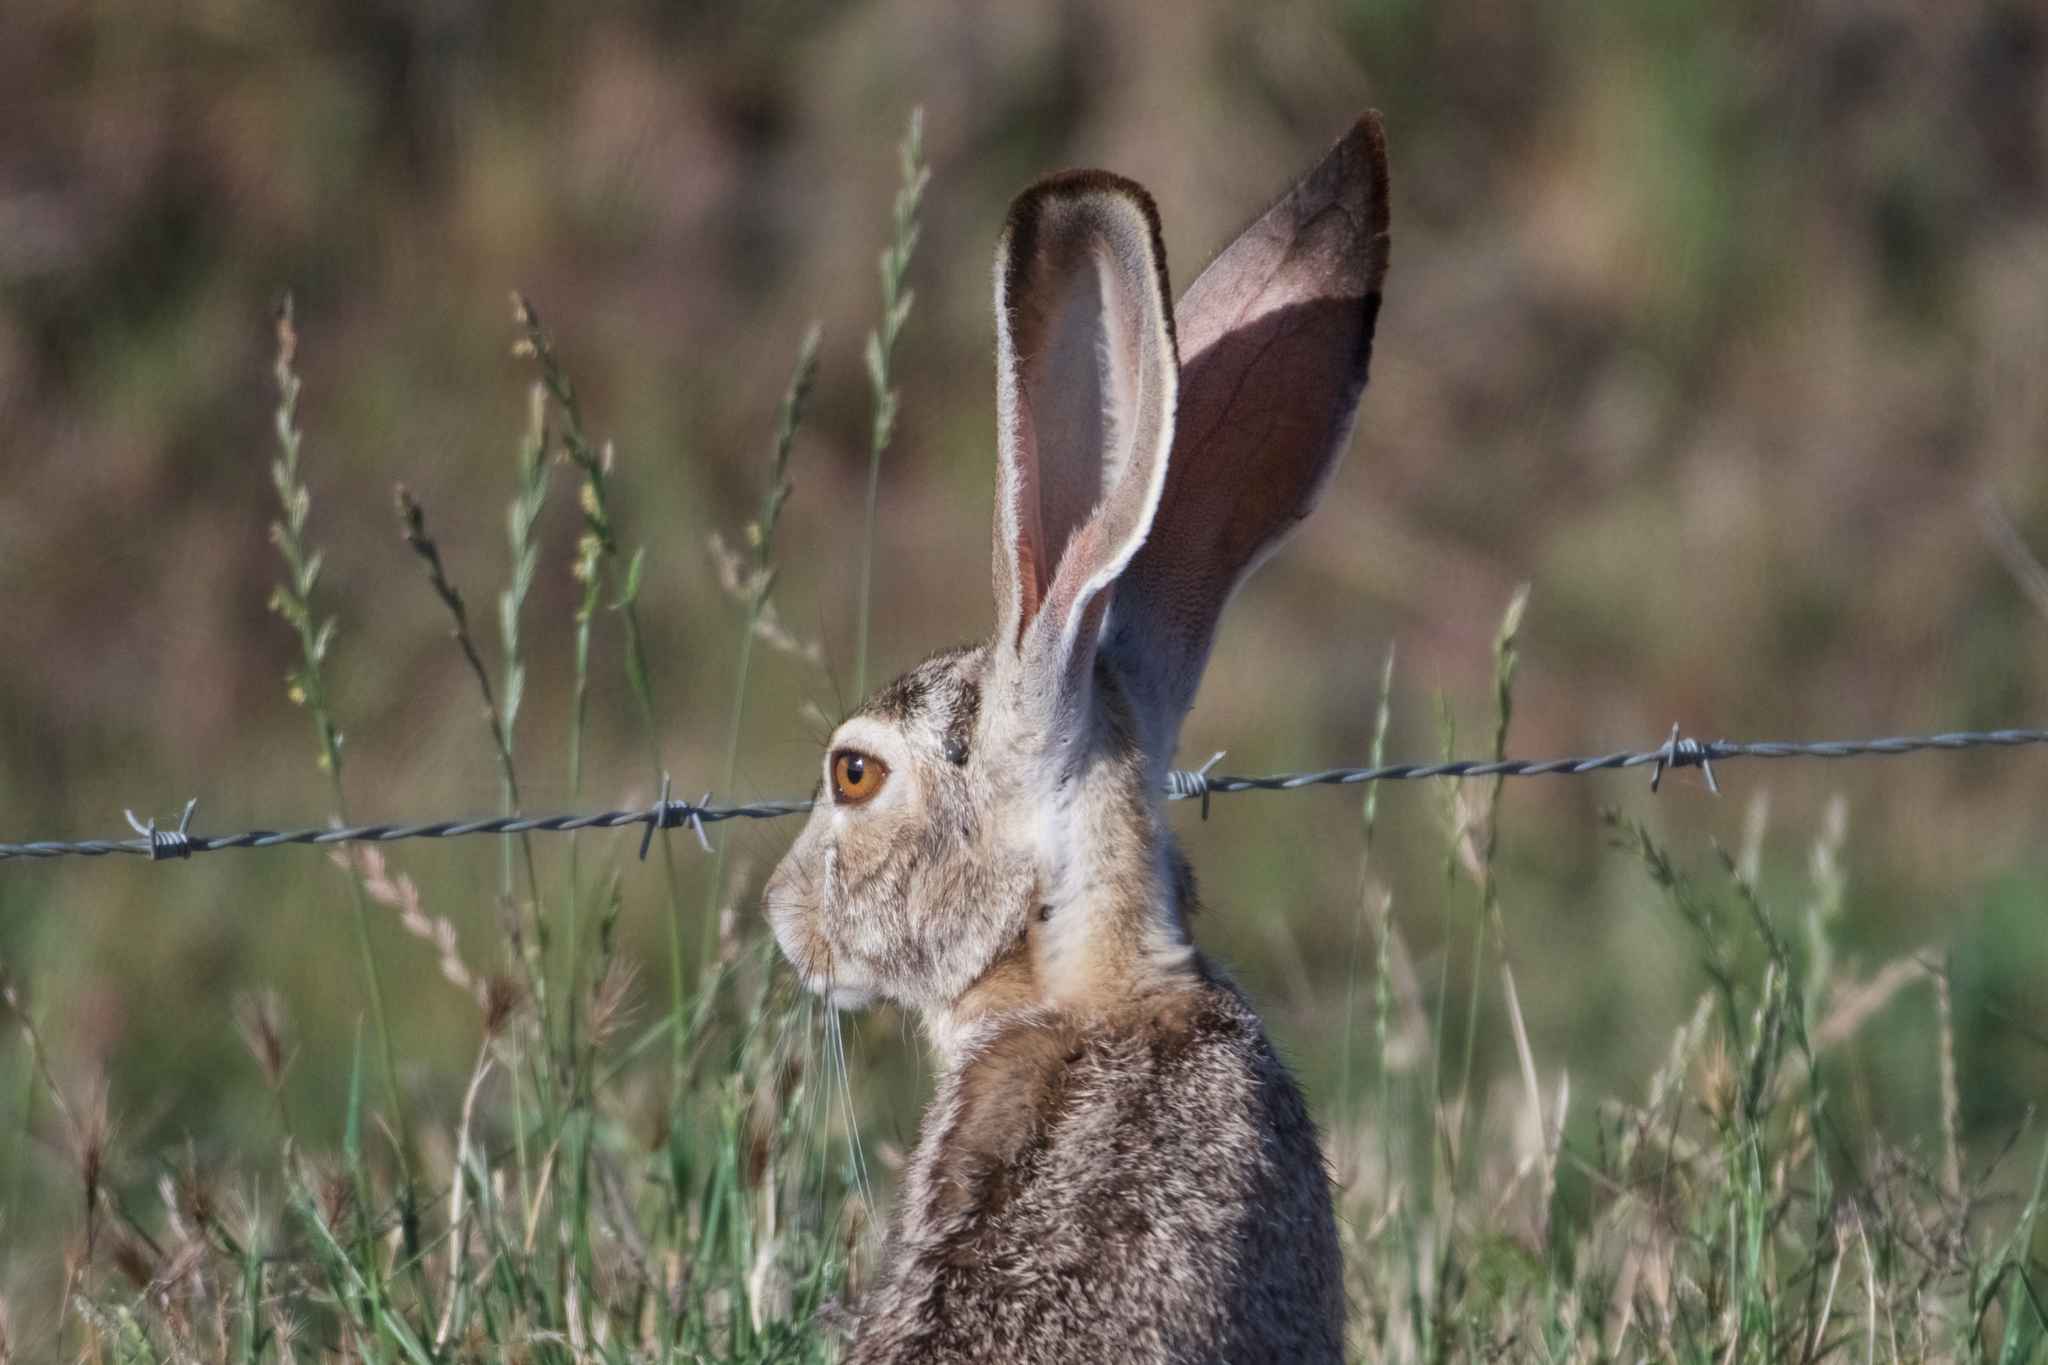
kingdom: Animalia
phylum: Chordata
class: Mammalia
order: Lagomorpha
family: Leporidae
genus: Lepus
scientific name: Lepus californicus
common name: Black-tailed jackrabbit
